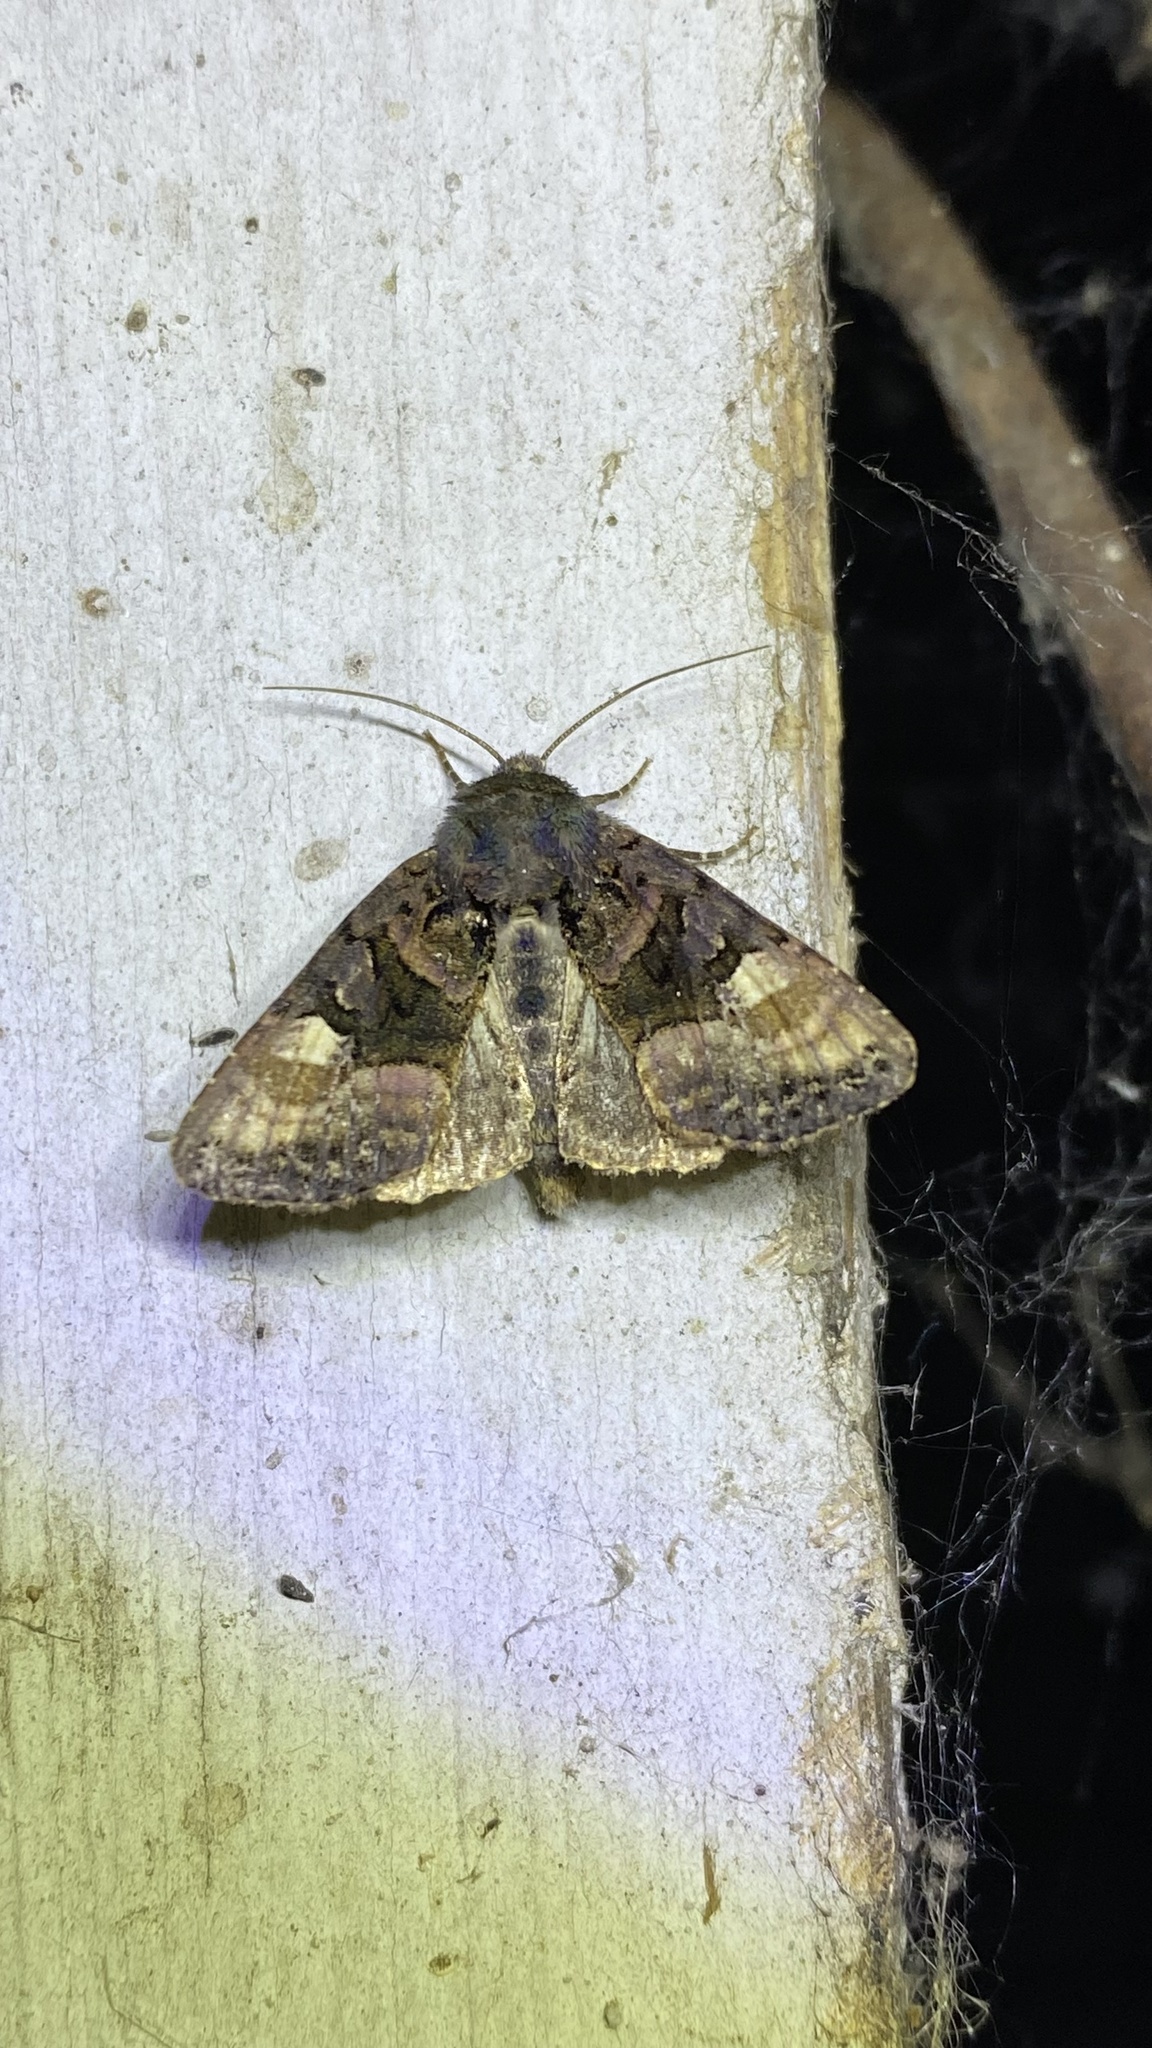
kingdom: Animalia
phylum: Arthropoda
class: Insecta
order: Lepidoptera
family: Noctuidae
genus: Euplexia
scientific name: Euplexia lucipara
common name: Small angle shades
